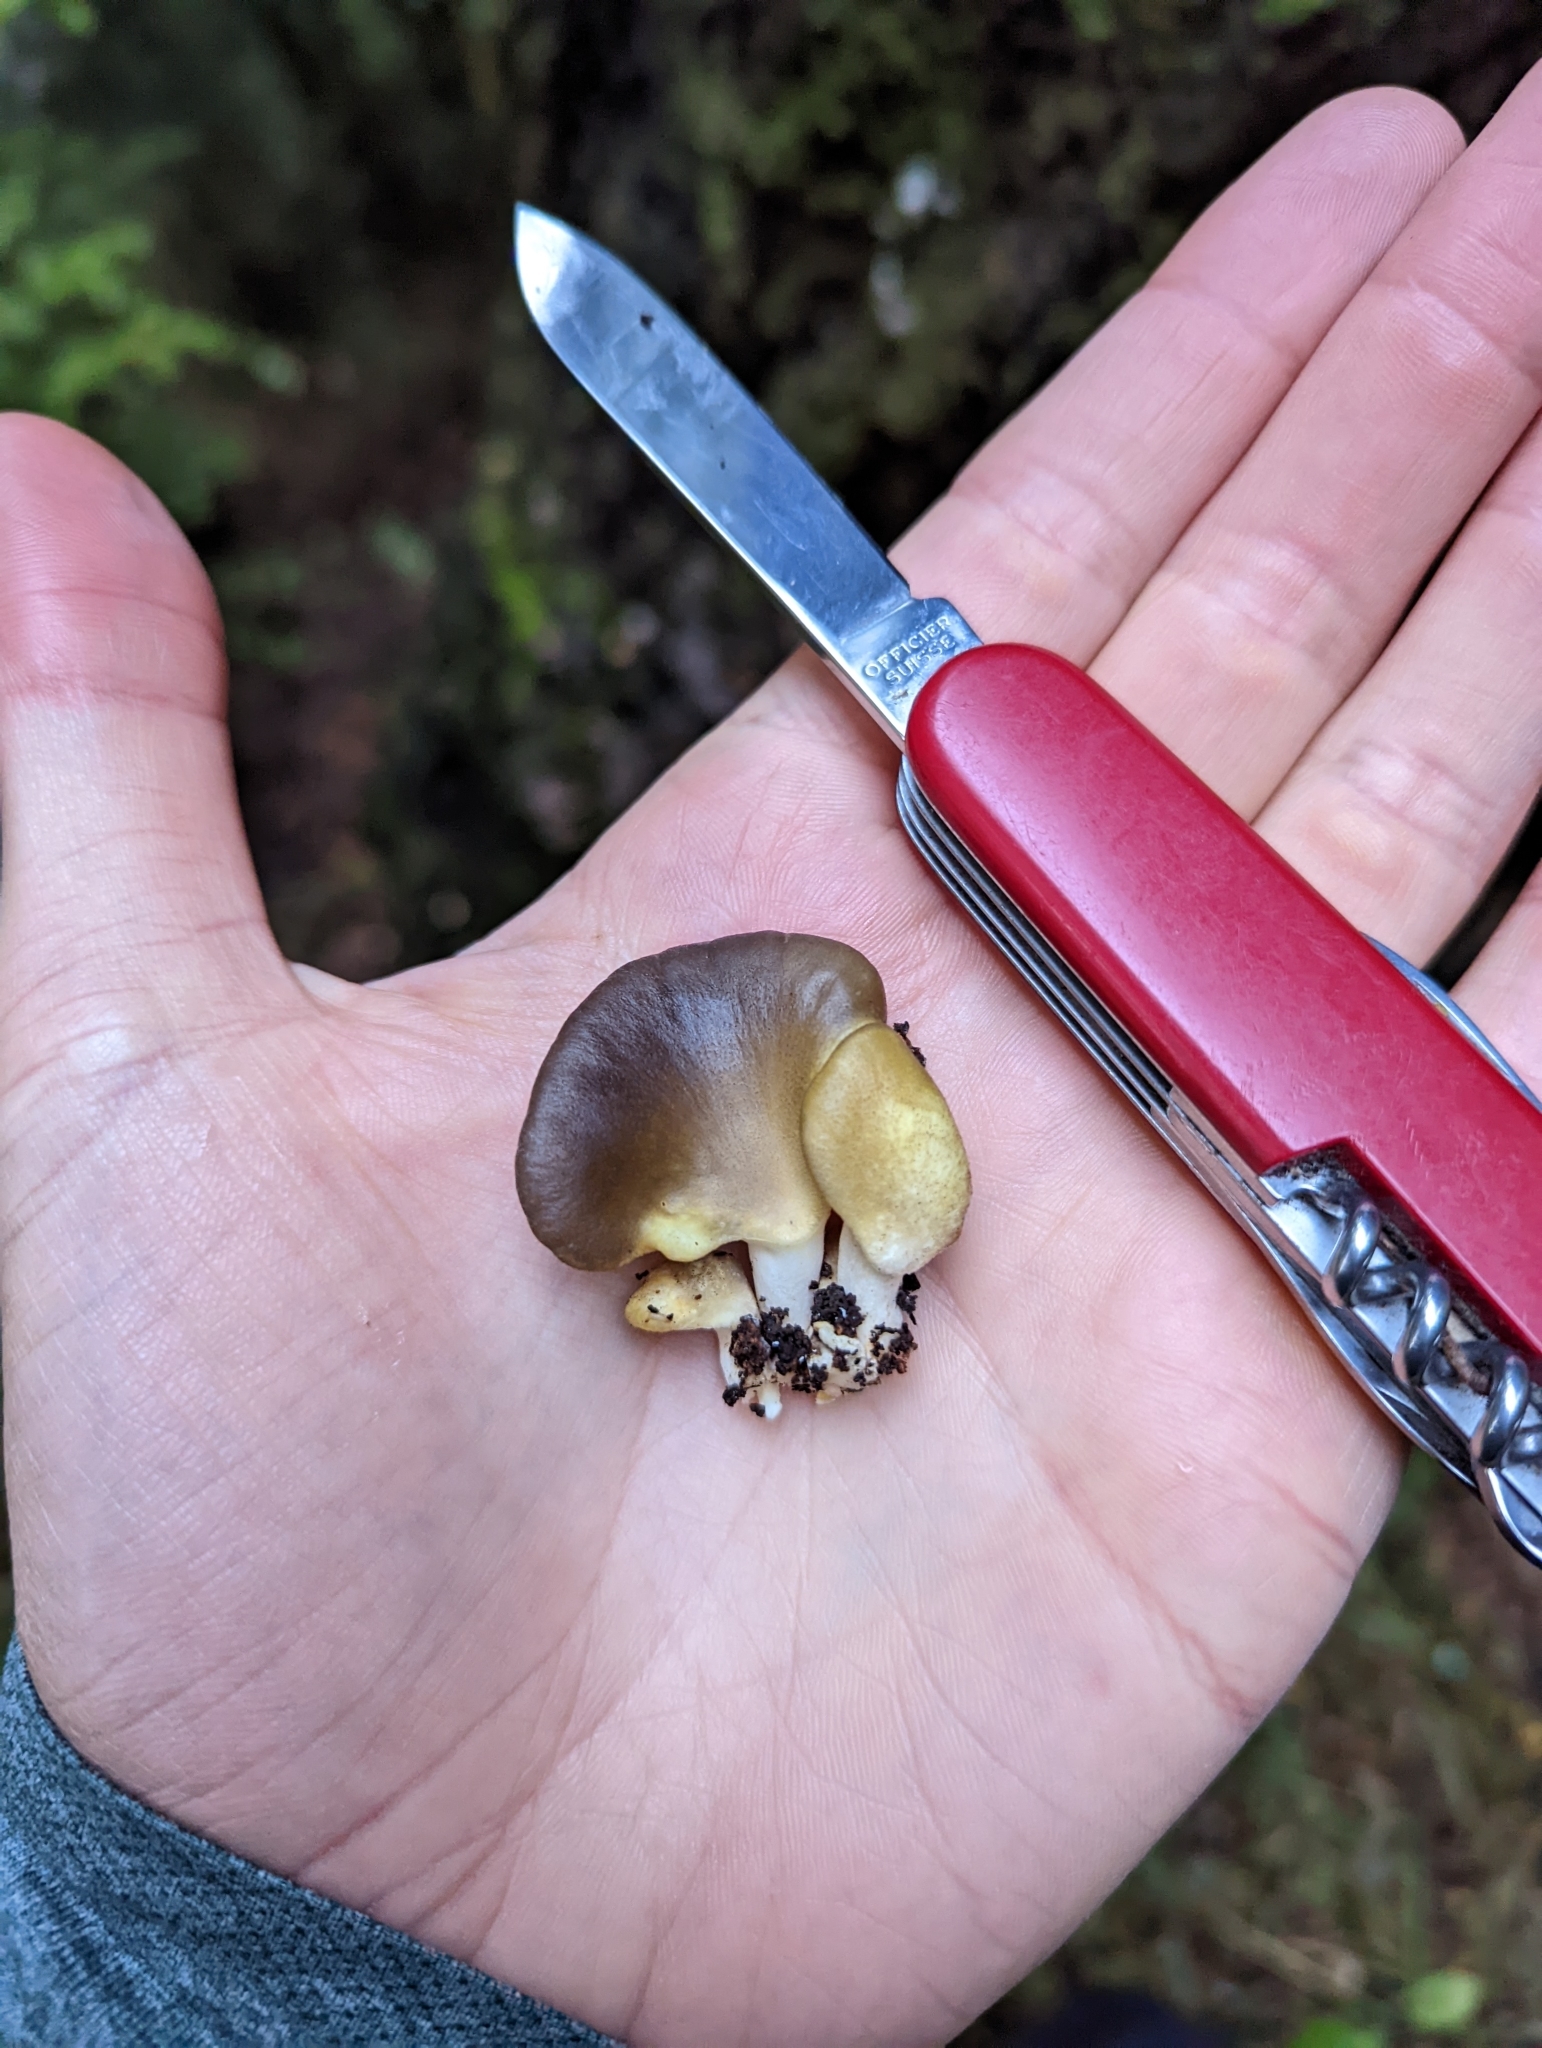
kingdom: Fungi
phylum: Basidiomycota
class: Agaricomycetes
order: Agaricales
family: Pleurotaceae
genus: Pleurotus
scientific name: Pleurotus purpureo-olivaceus
